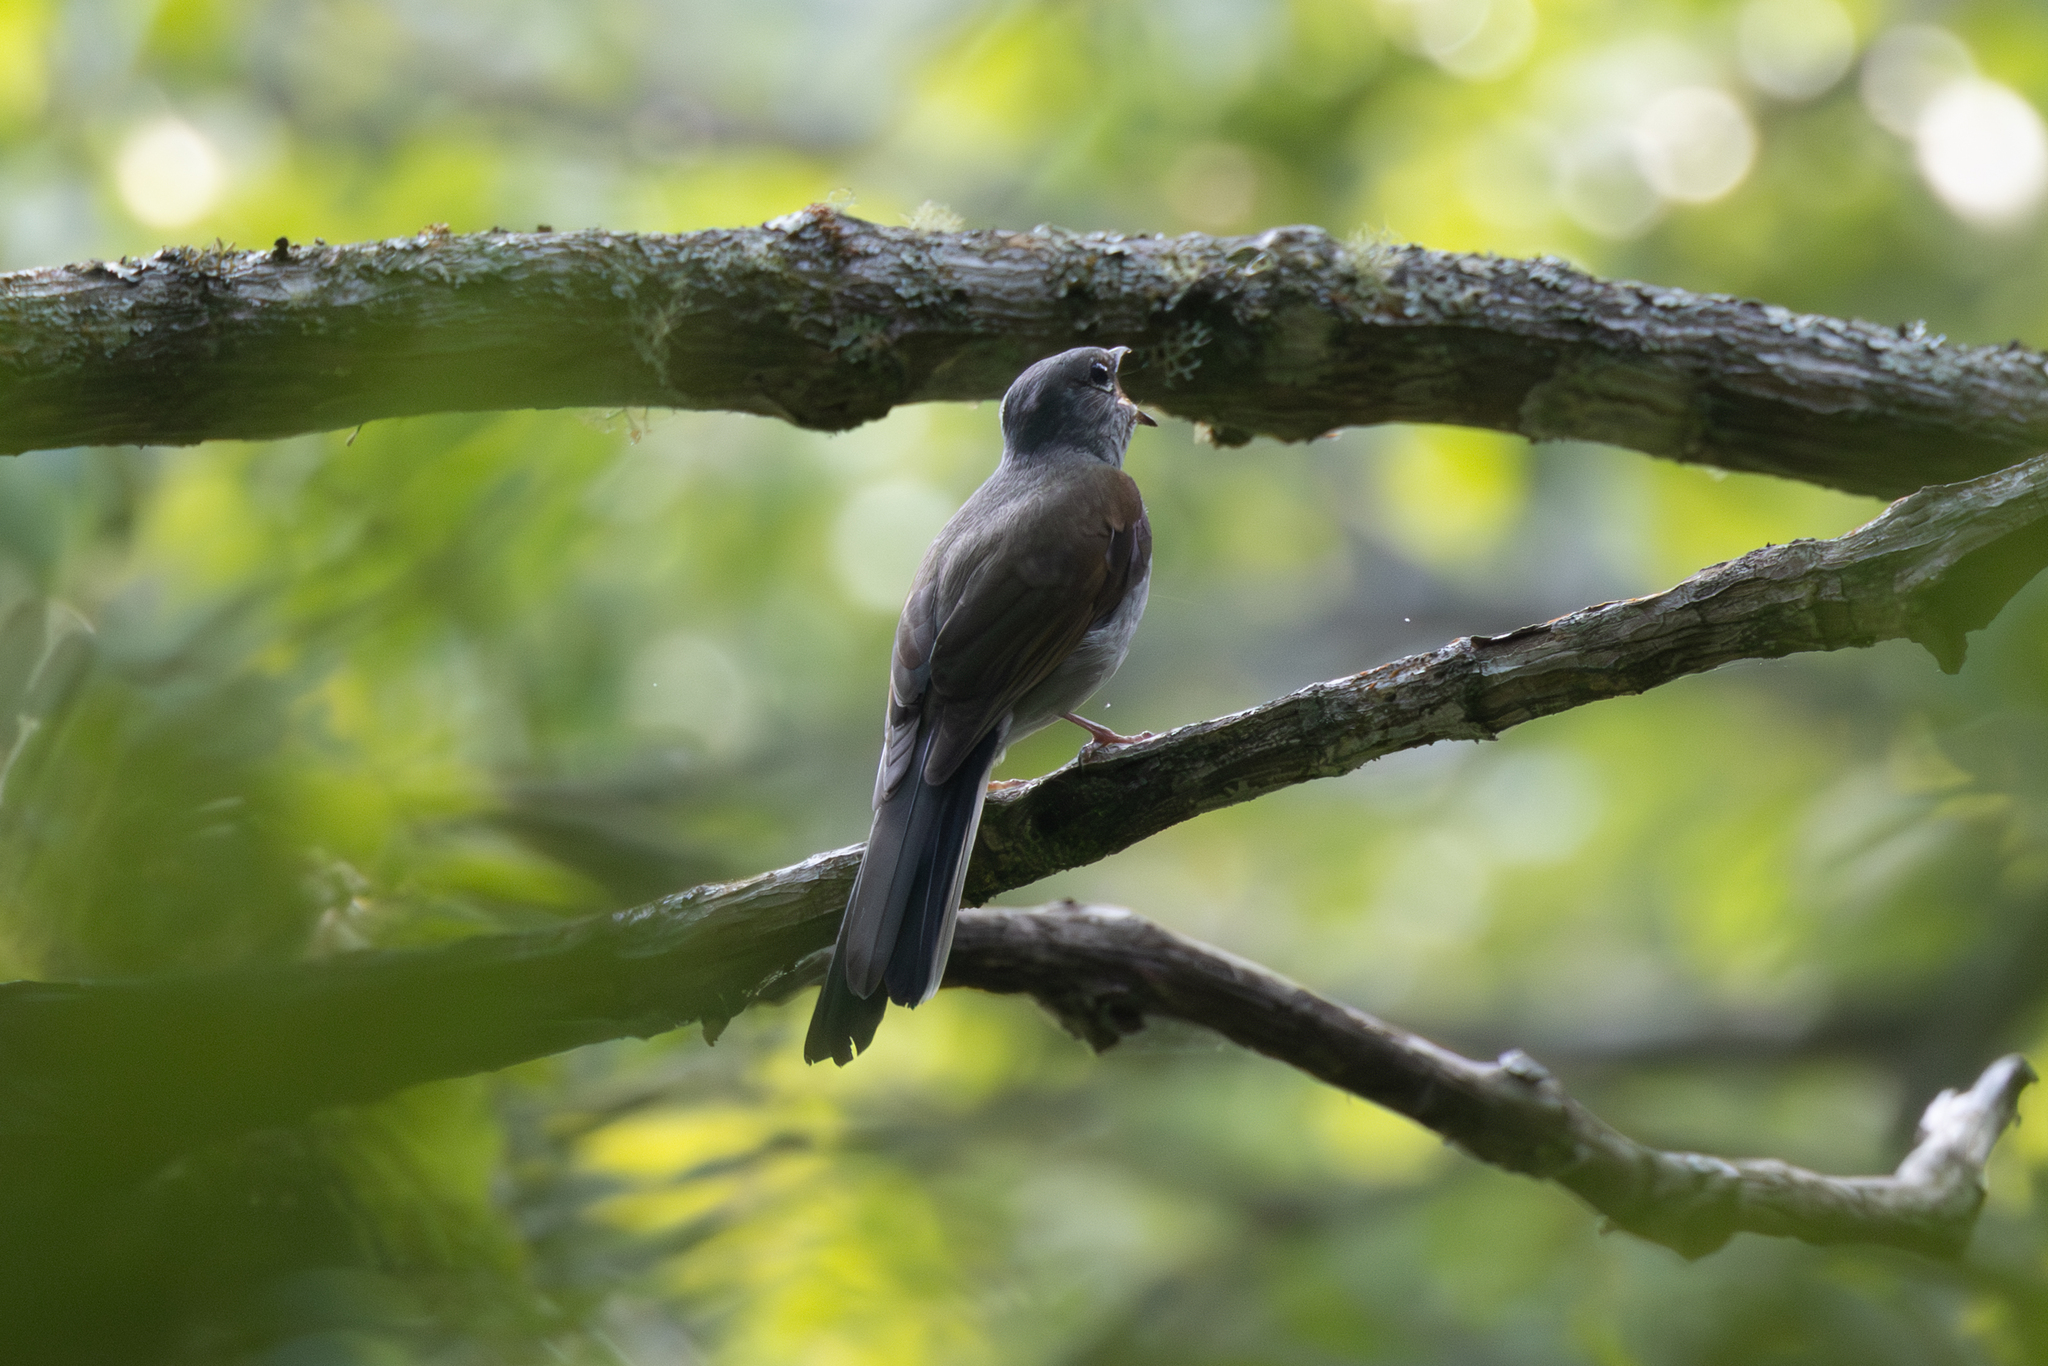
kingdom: Animalia
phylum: Chordata
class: Aves
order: Passeriformes
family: Turdidae
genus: Myadestes
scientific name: Myadestes occidentalis
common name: Brown-backed solitaire
